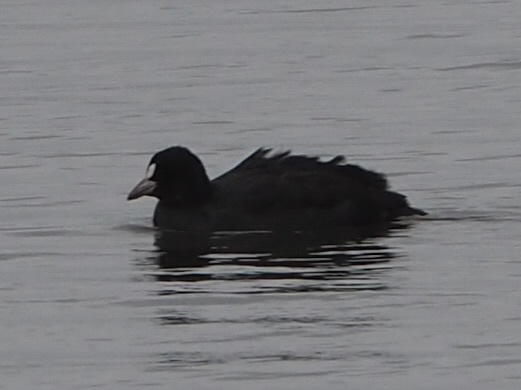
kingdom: Animalia
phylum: Chordata
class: Aves
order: Gruiformes
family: Rallidae
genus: Fulica
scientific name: Fulica atra
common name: Eurasian coot
